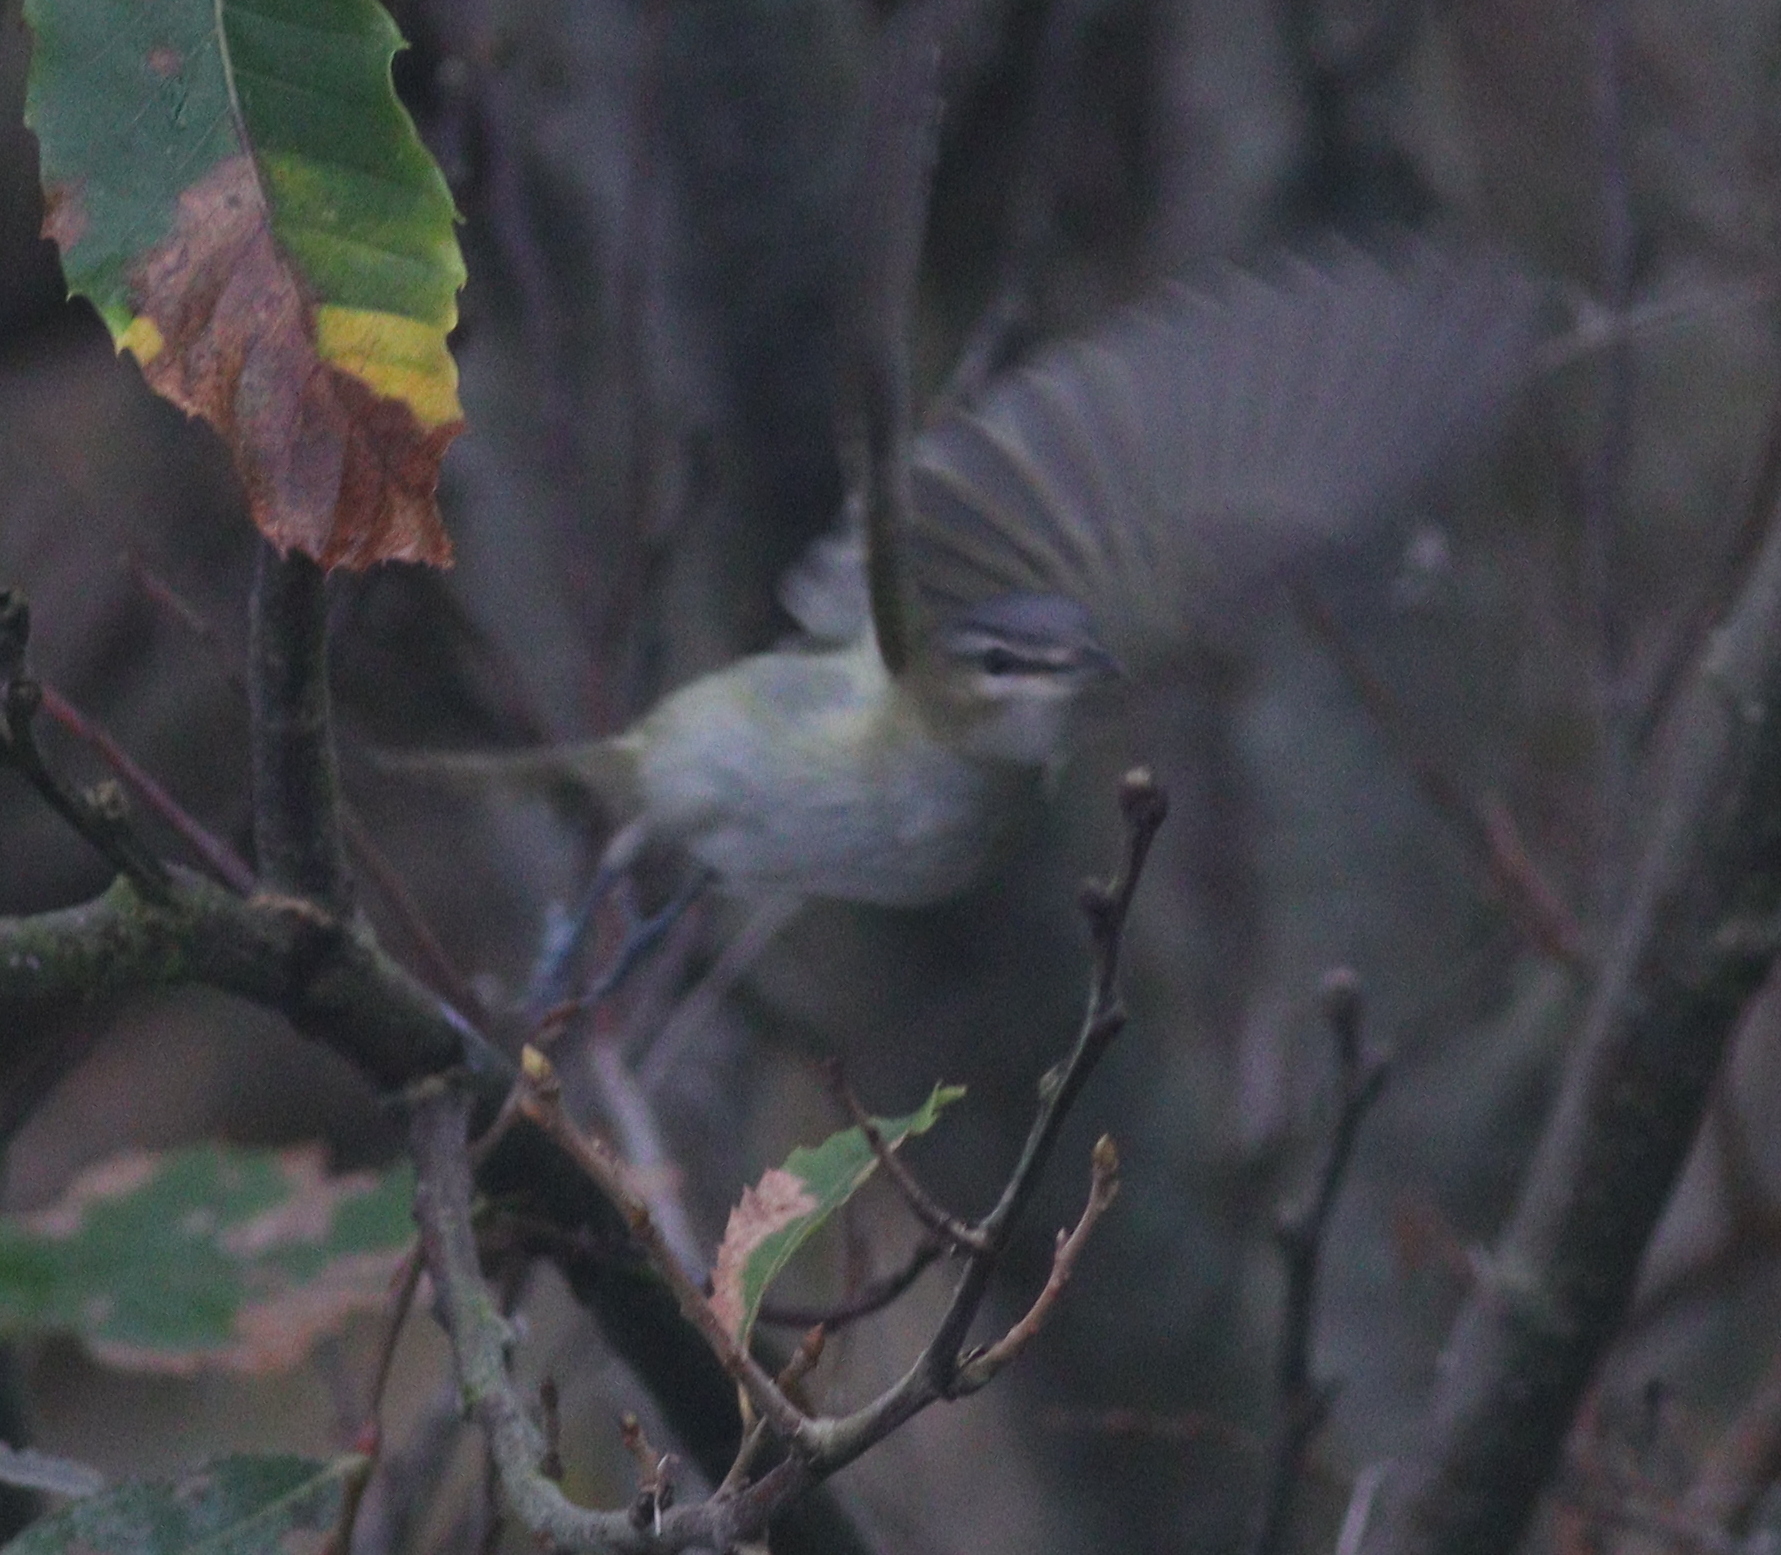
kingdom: Animalia
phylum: Chordata
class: Aves
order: Passeriformes
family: Vireonidae
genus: Vireo
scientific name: Vireo olivaceus
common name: Red-eyed vireo
